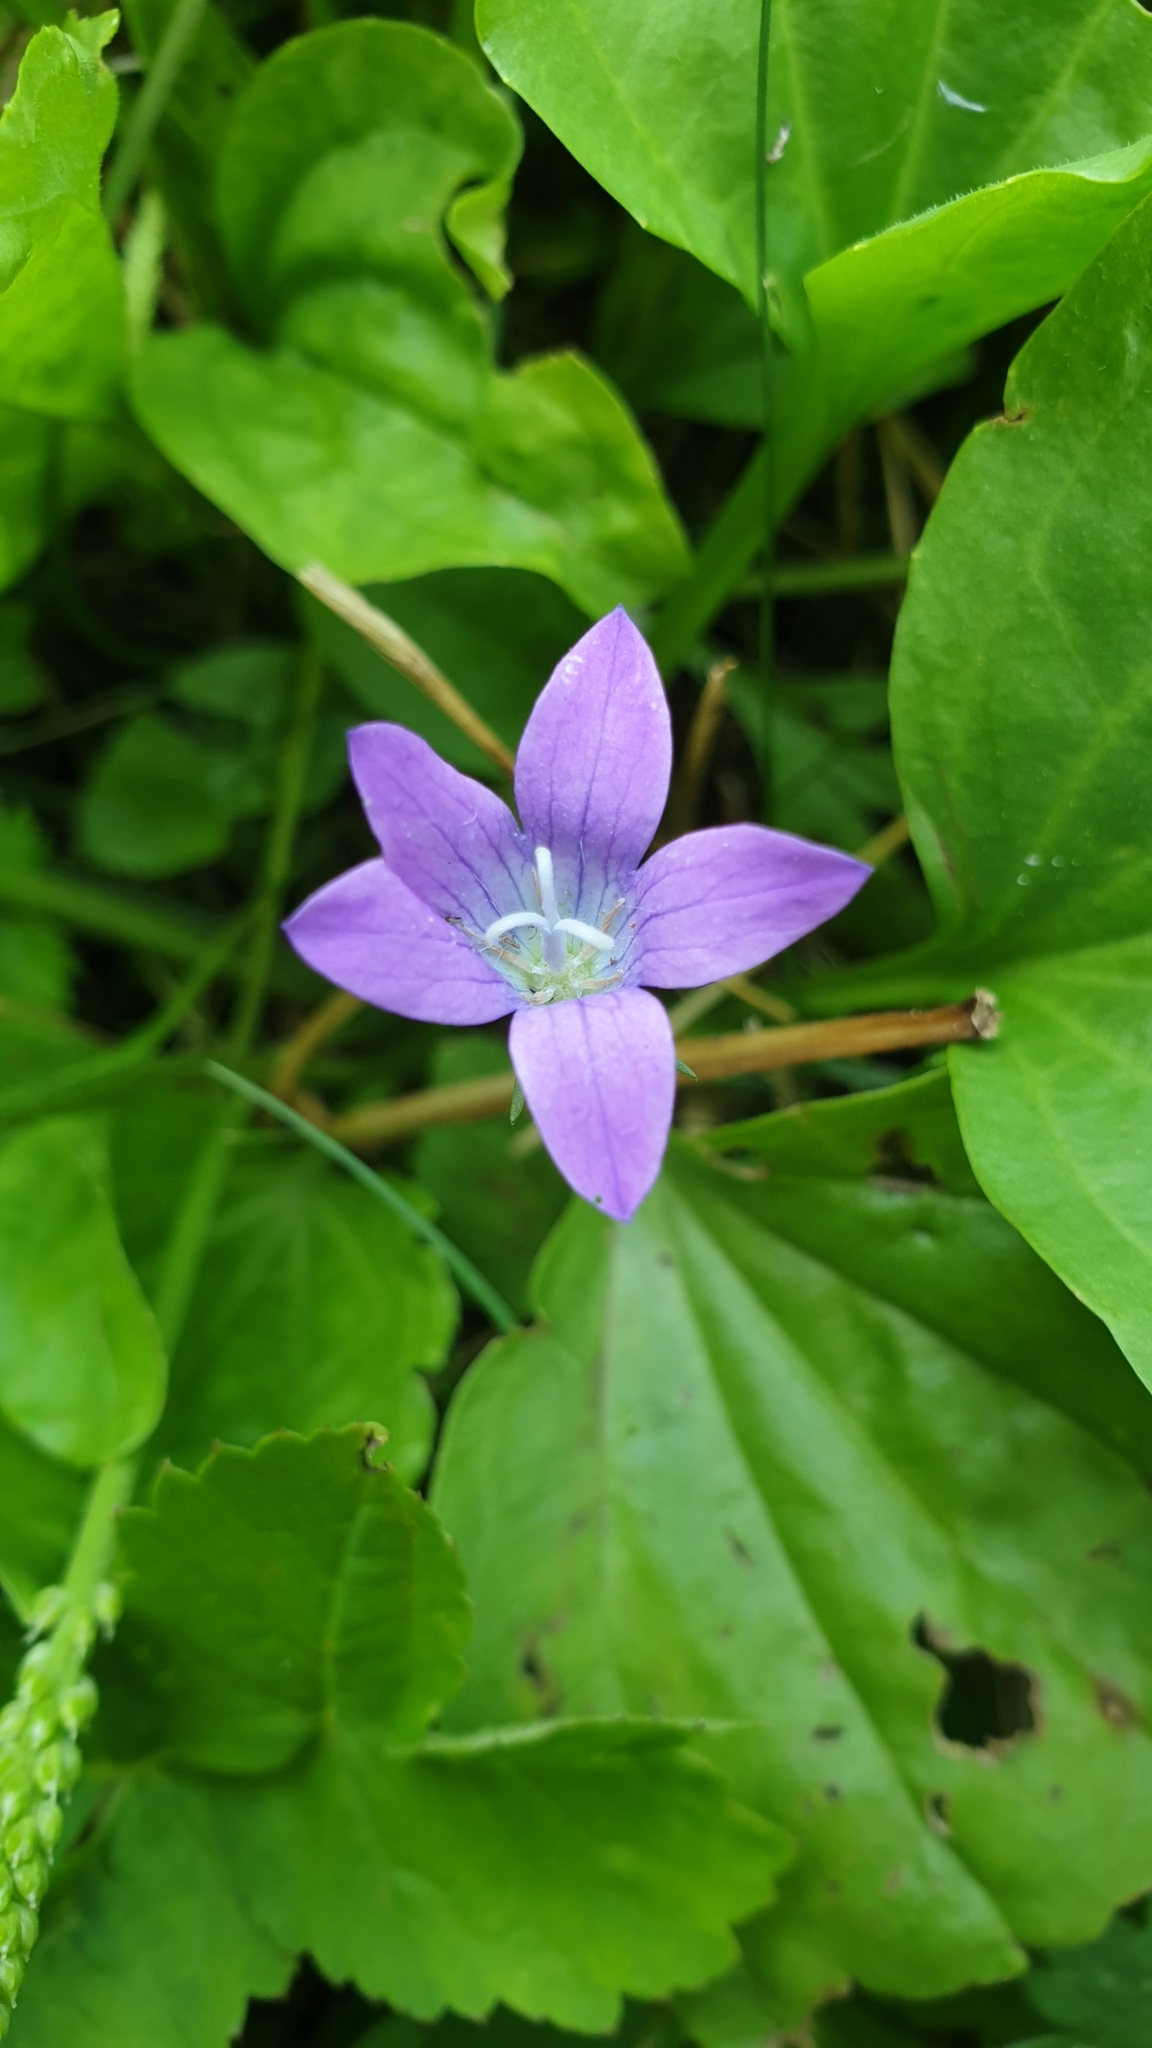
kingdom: Plantae
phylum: Tracheophyta
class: Magnoliopsida
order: Asterales
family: Campanulaceae
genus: Campanula
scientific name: Campanula patula
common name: Spreading bellflower
